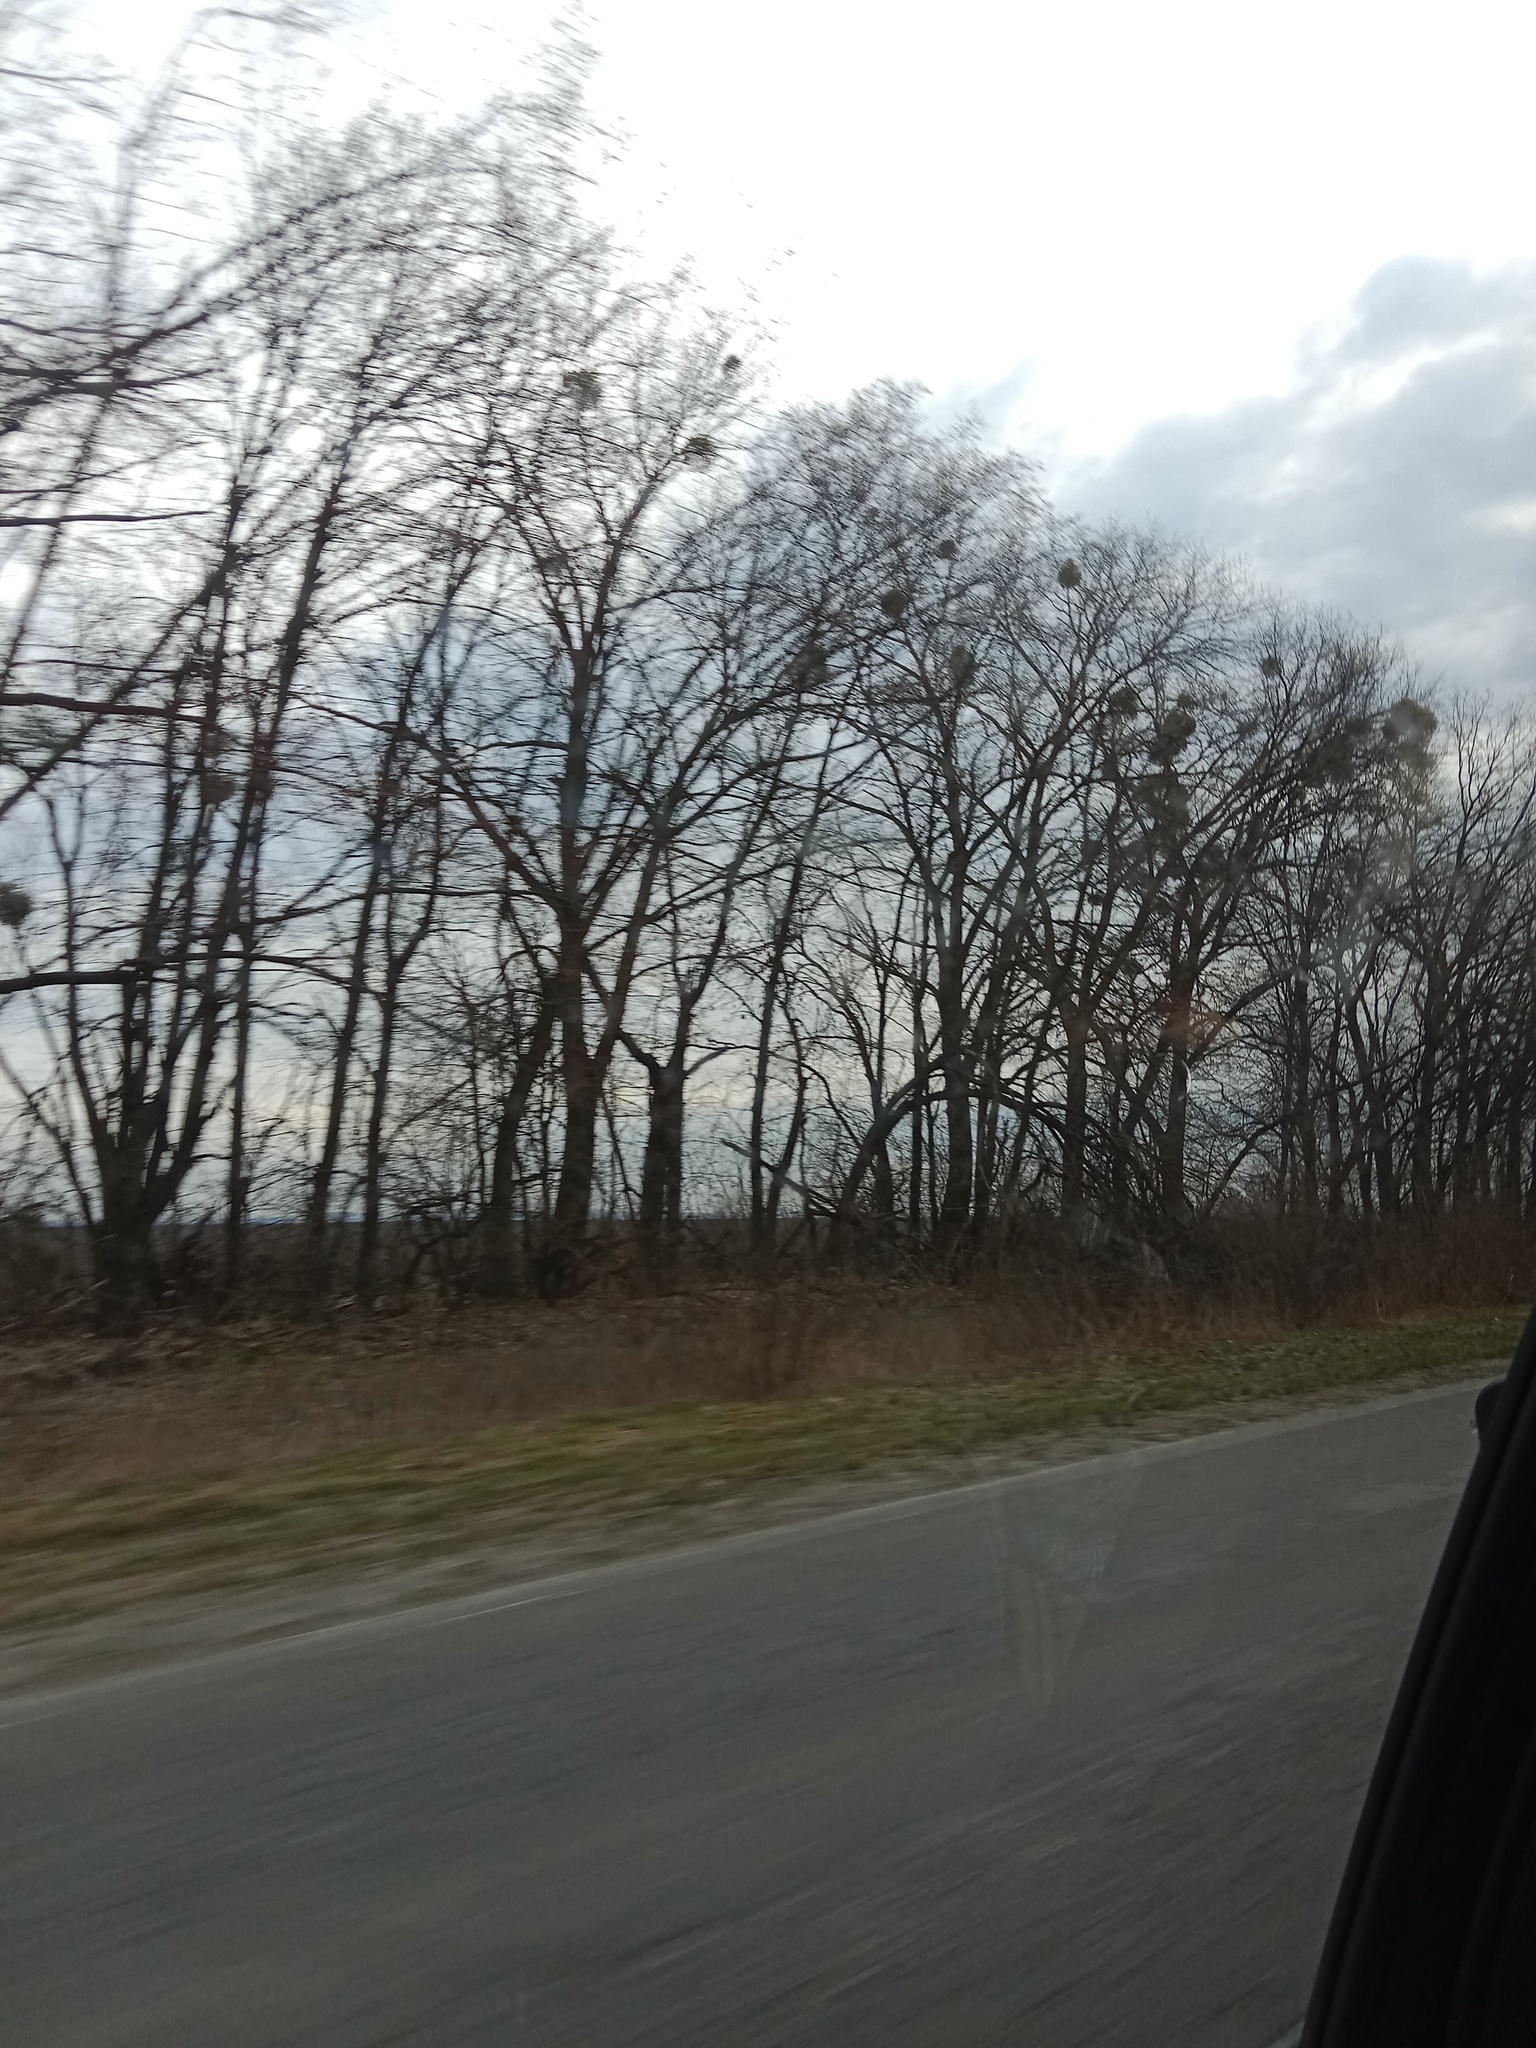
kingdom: Plantae
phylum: Tracheophyta
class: Magnoliopsida
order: Santalales
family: Viscaceae
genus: Viscum
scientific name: Viscum album
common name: Mistletoe
